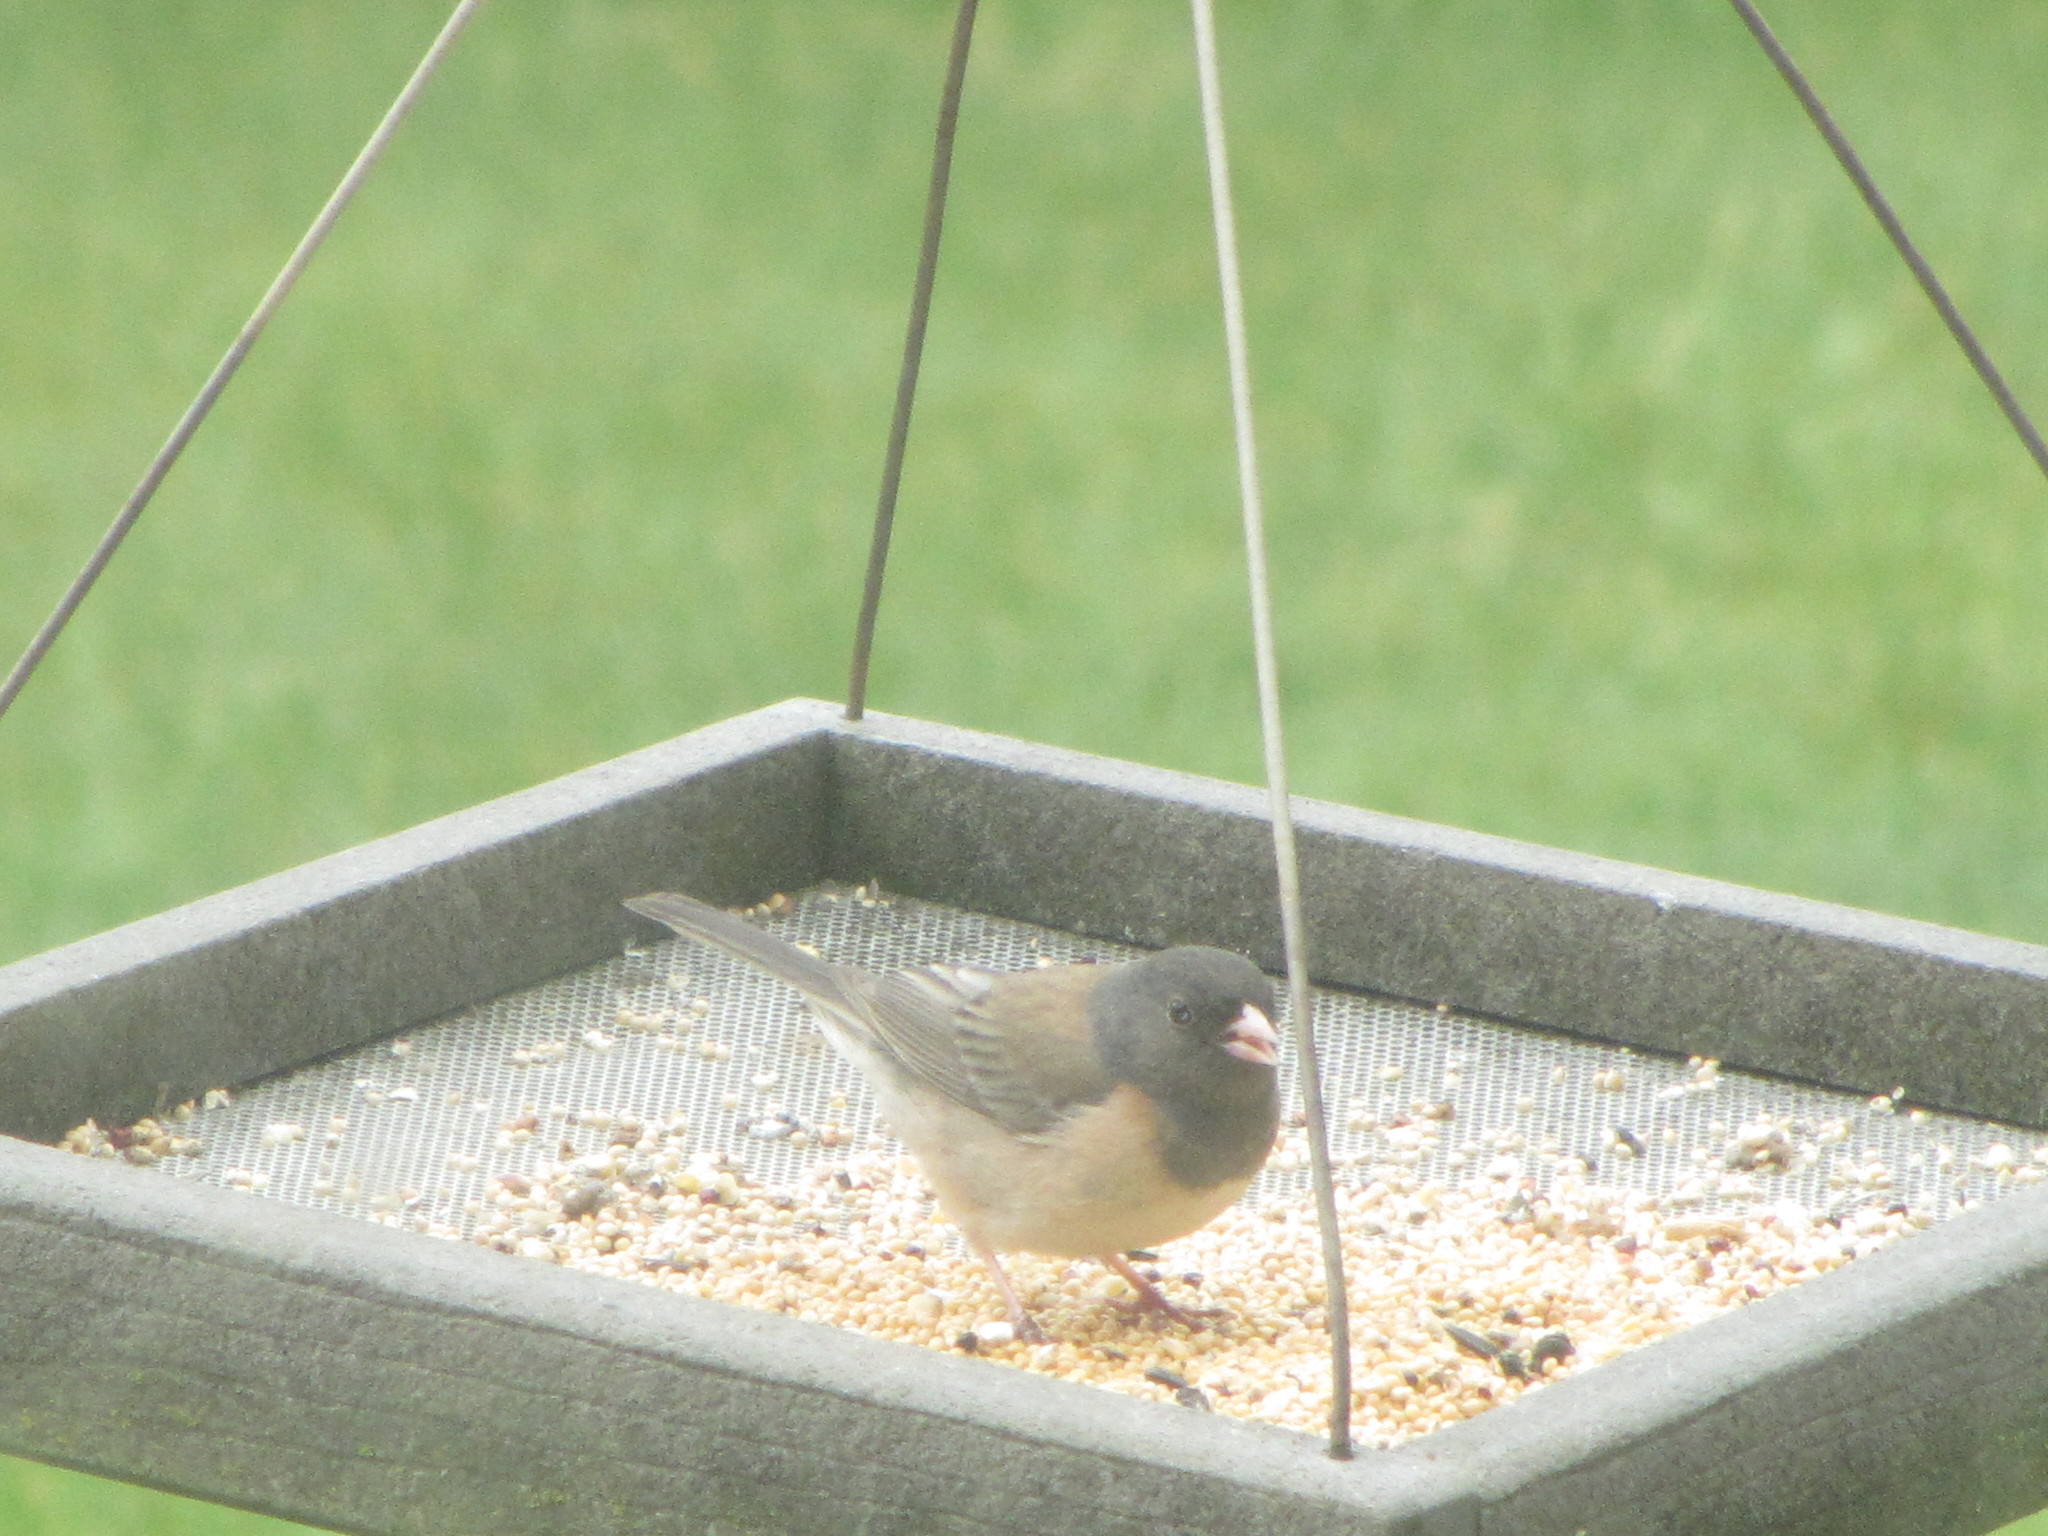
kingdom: Animalia
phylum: Chordata
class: Aves
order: Passeriformes
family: Passerellidae
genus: Junco
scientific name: Junco hyemalis
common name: Dark-eyed junco
